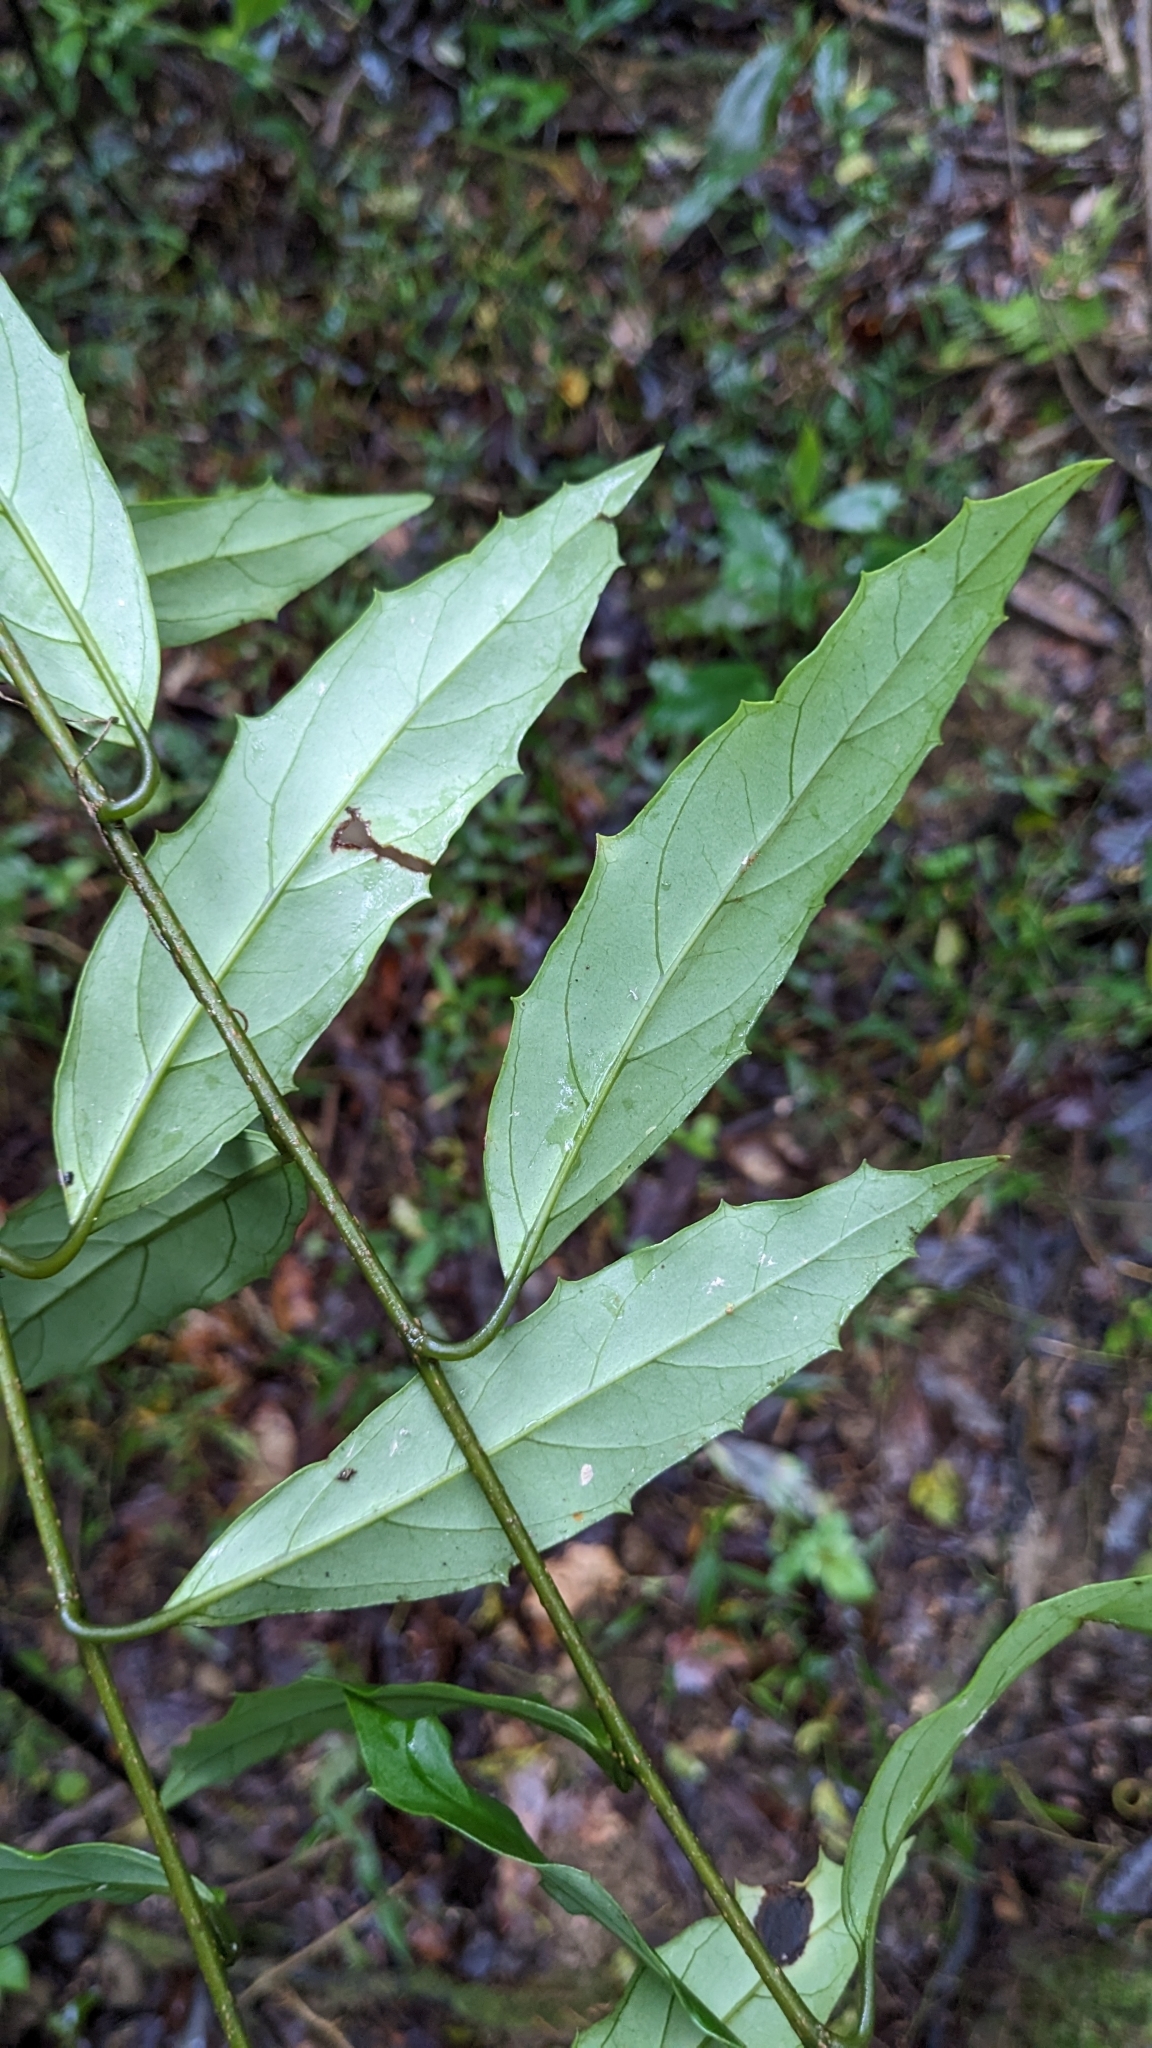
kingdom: Plantae
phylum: Tracheophyta
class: Magnoliopsida
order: Ericales
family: Primulaceae
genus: Maesa
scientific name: Maesa japonica
